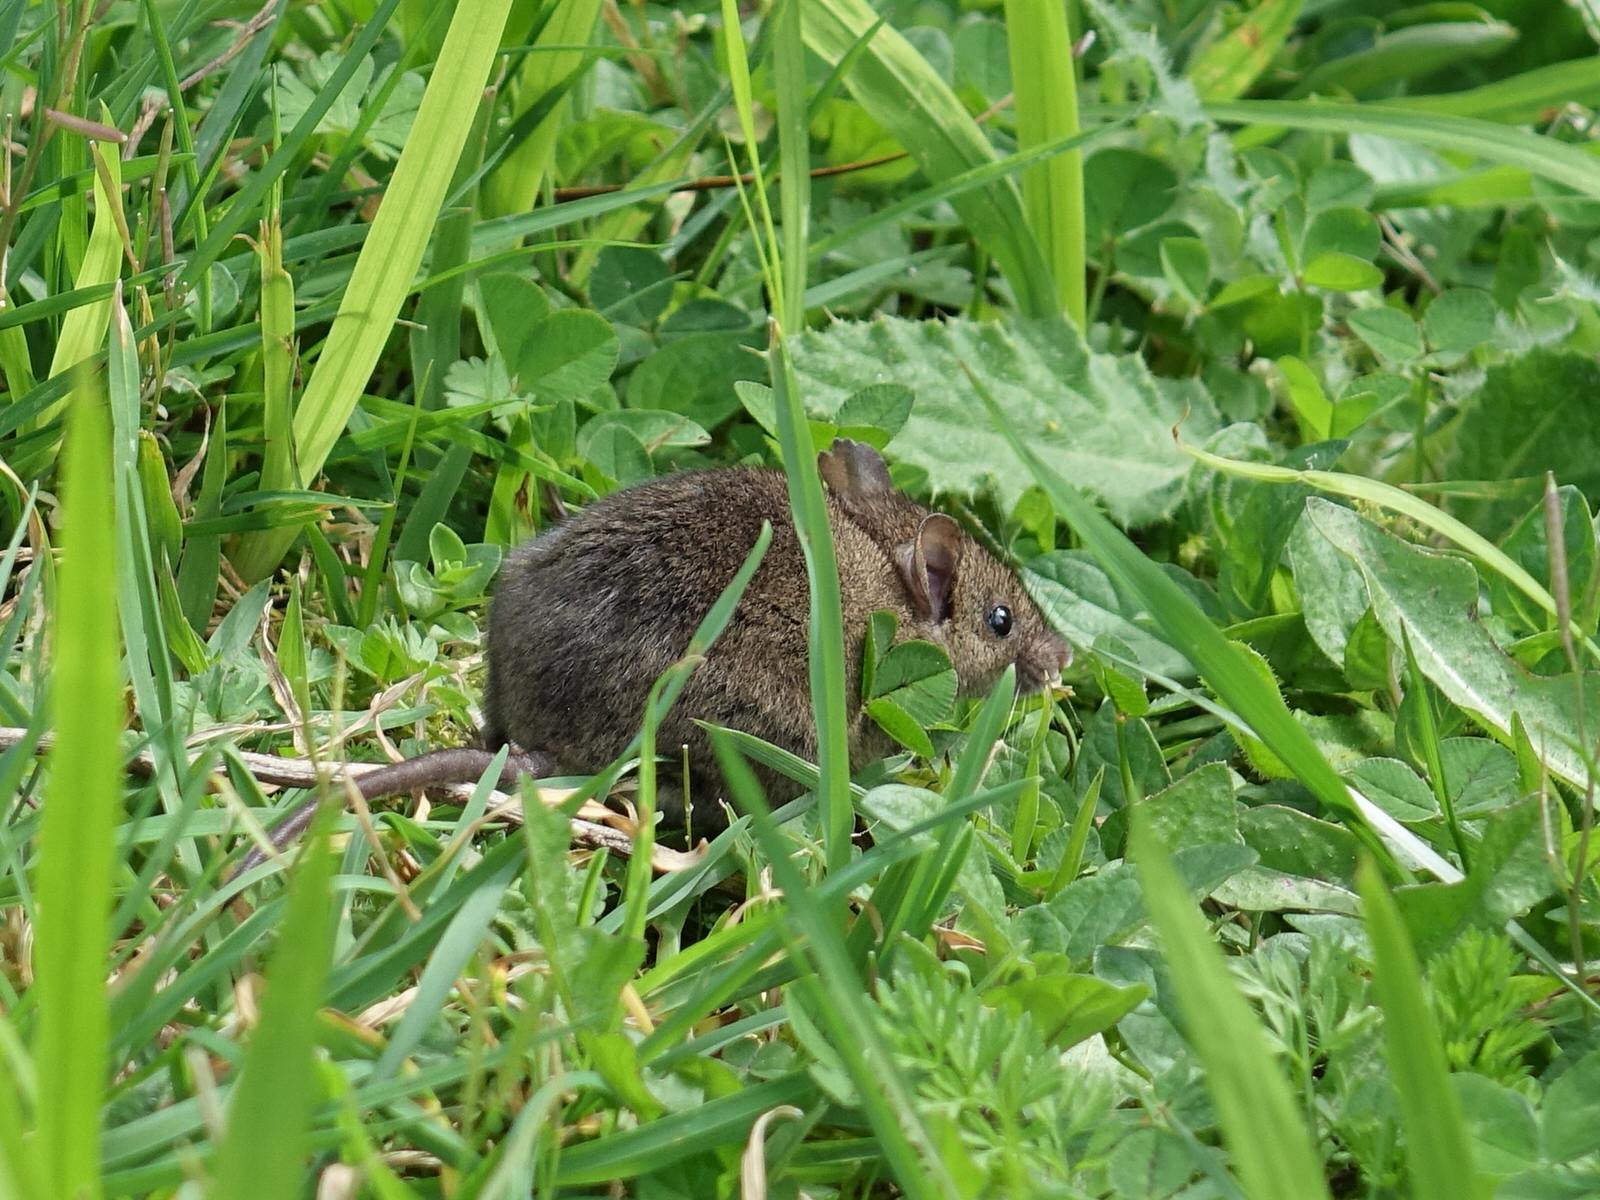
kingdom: Animalia
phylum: Chordata
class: Mammalia
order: Rodentia
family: Muridae
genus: Mus
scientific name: Mus musculus
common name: House mouse
